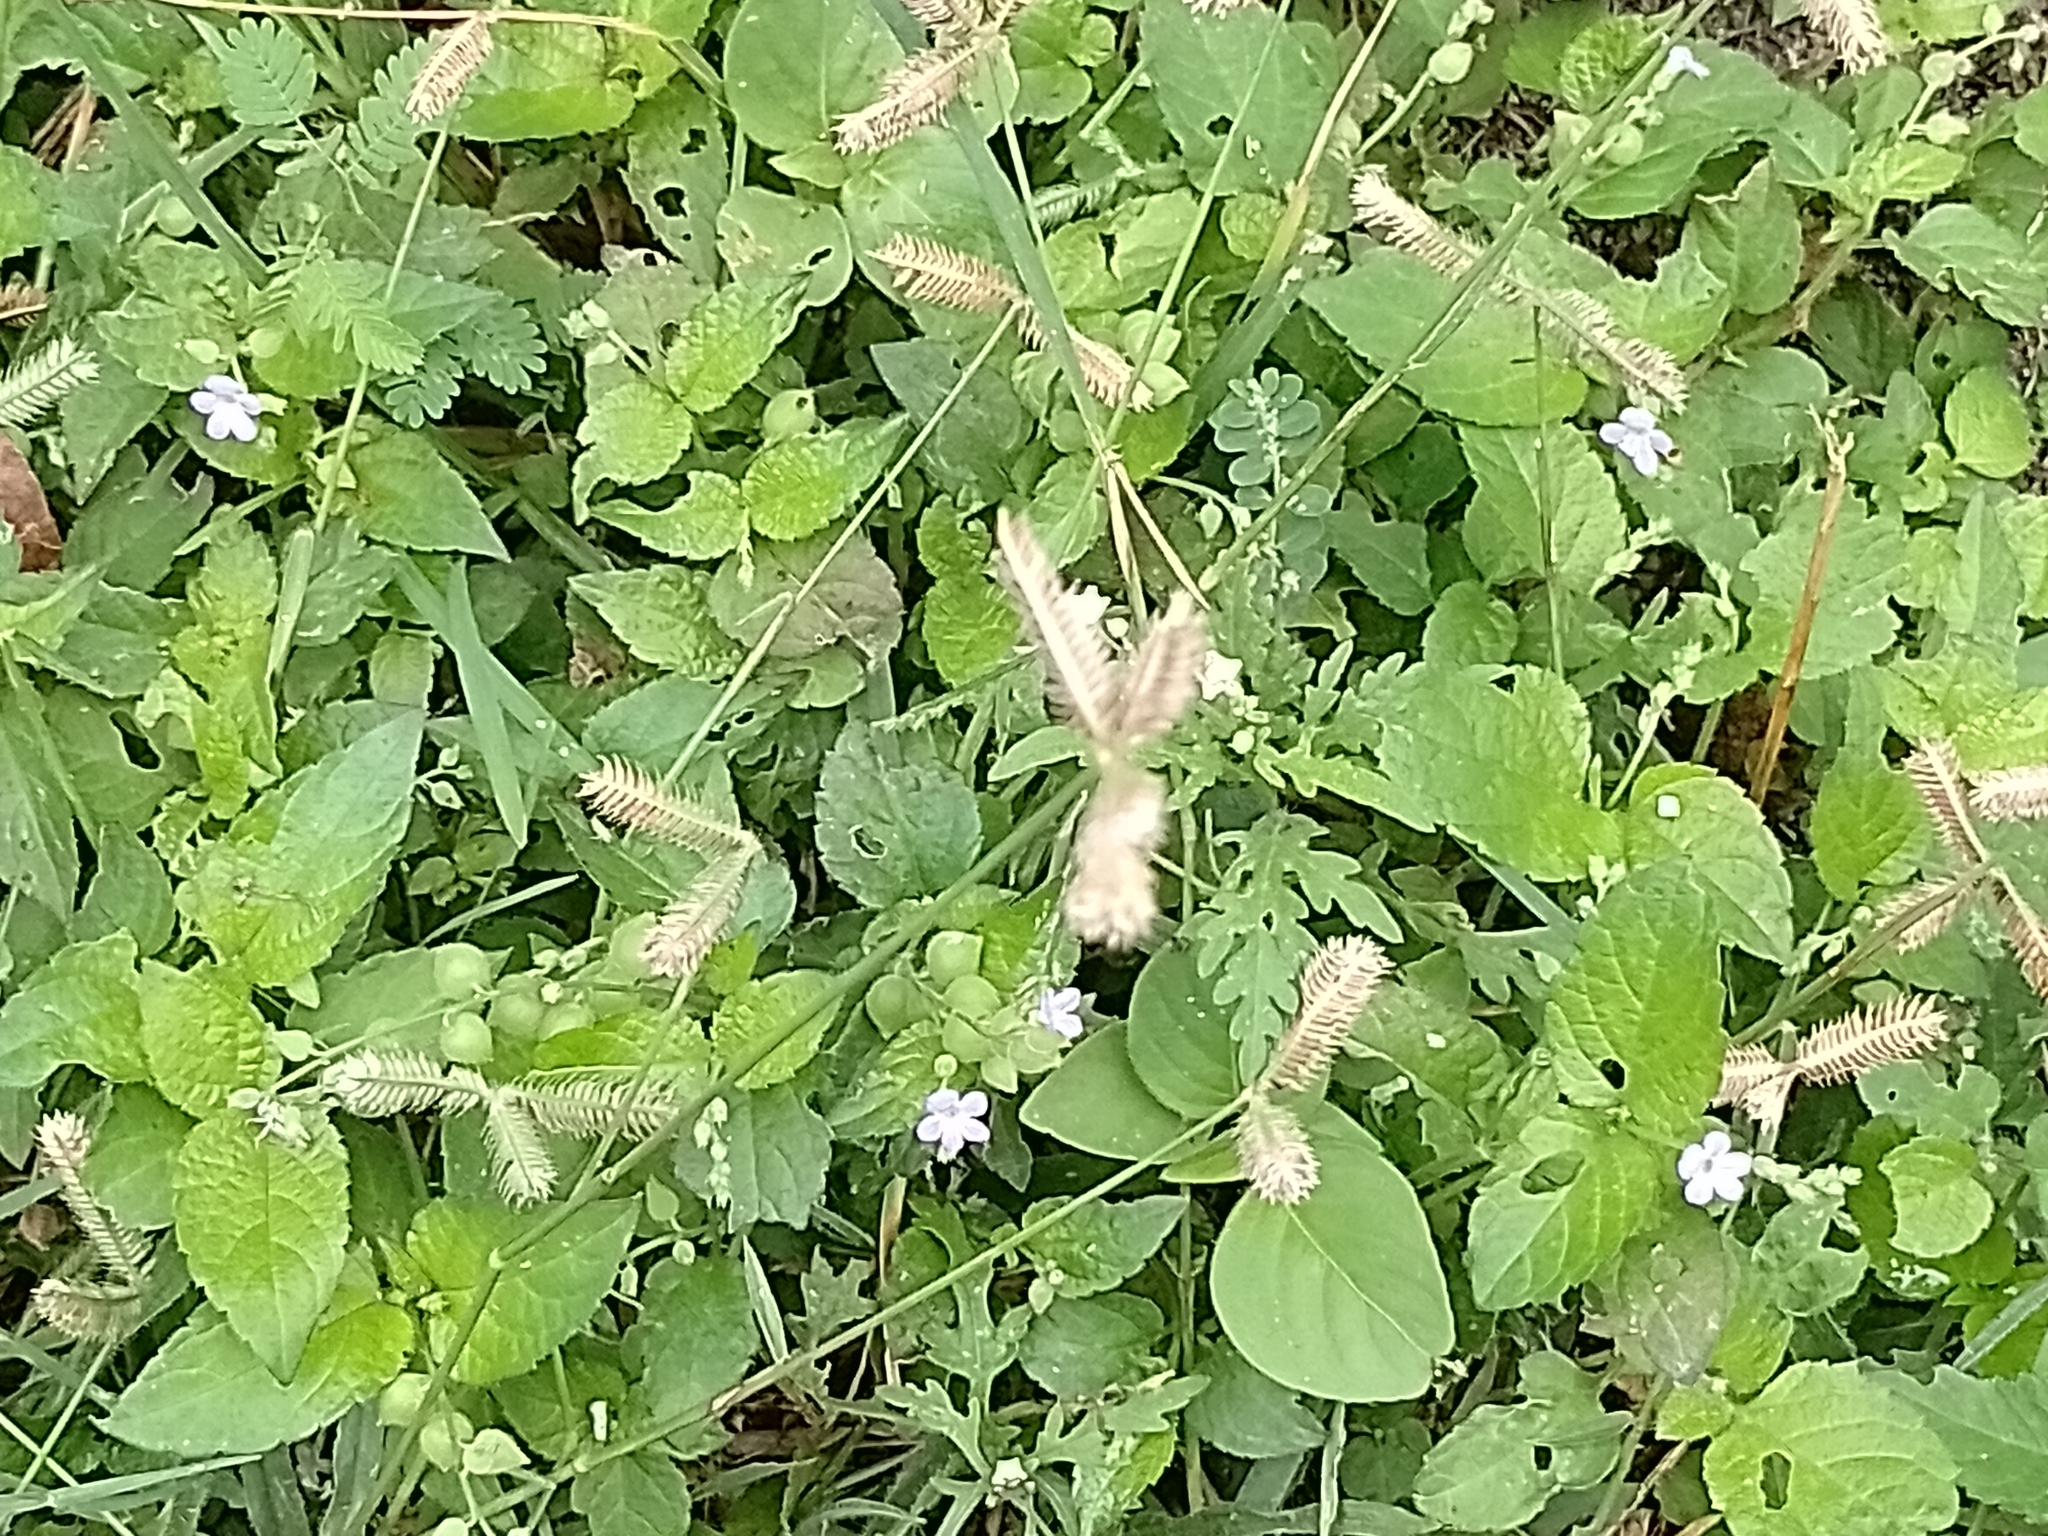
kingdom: Plantae
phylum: Tracheophyta
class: Liliopsida
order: Poales
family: Poaceae
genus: Dactyloctenium
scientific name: Dactyloctenium aegyptium
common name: Egyptian grass
